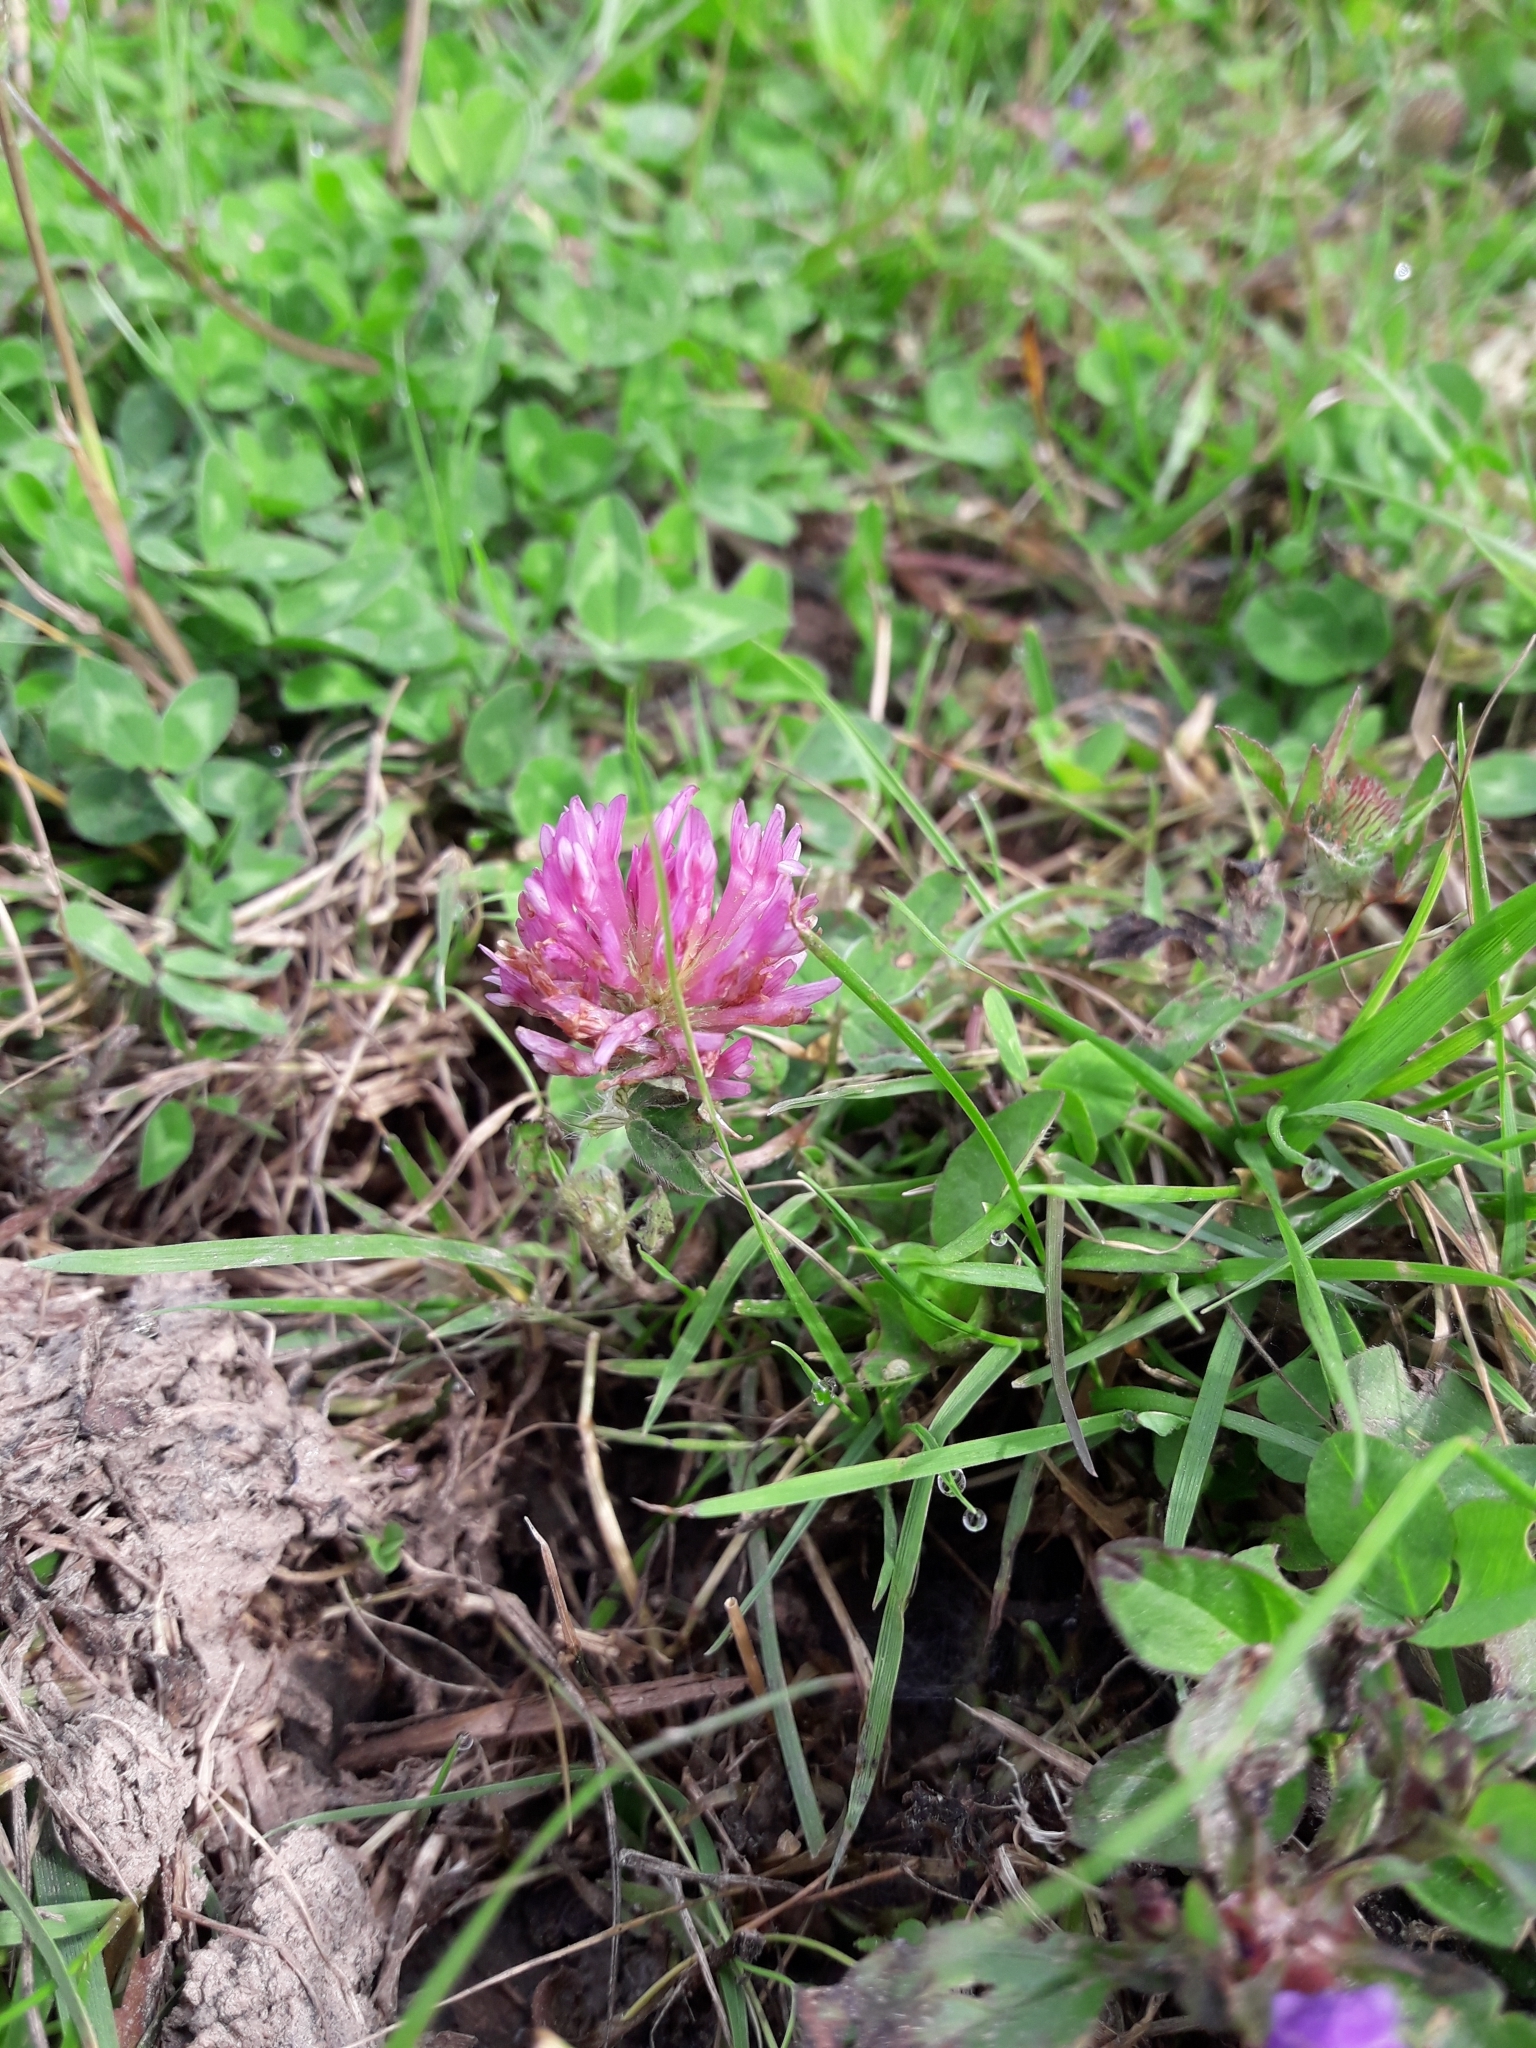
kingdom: Plantae
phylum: Tracheophyta
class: Magnoliopsida
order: Fabales
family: Fabaceae
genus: Trifolium
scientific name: Trifolium pratense
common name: Red clover
